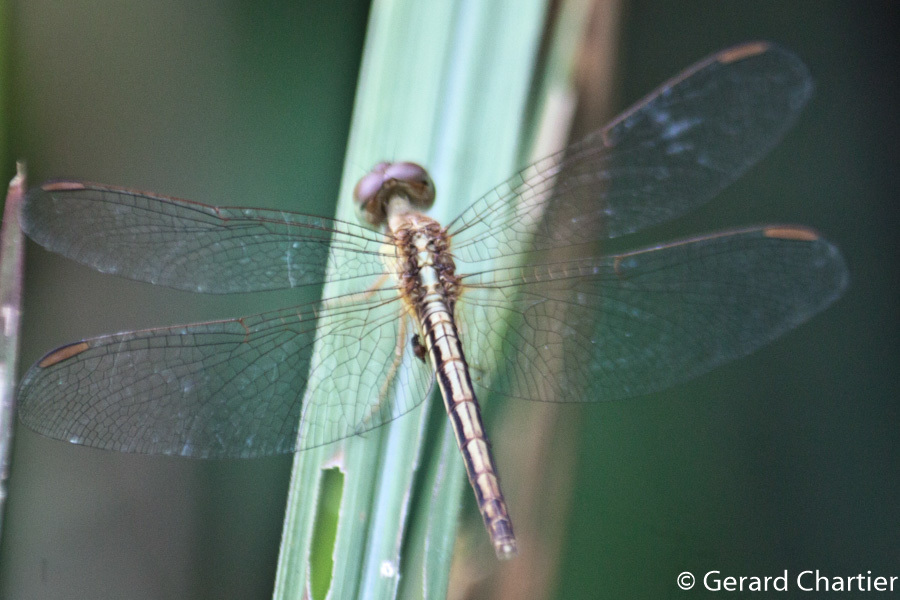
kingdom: Animalia
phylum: Arthropoda
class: Insecta
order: Odonata
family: Libellulidae
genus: Neurothemis
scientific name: Neurothemis intermedia
